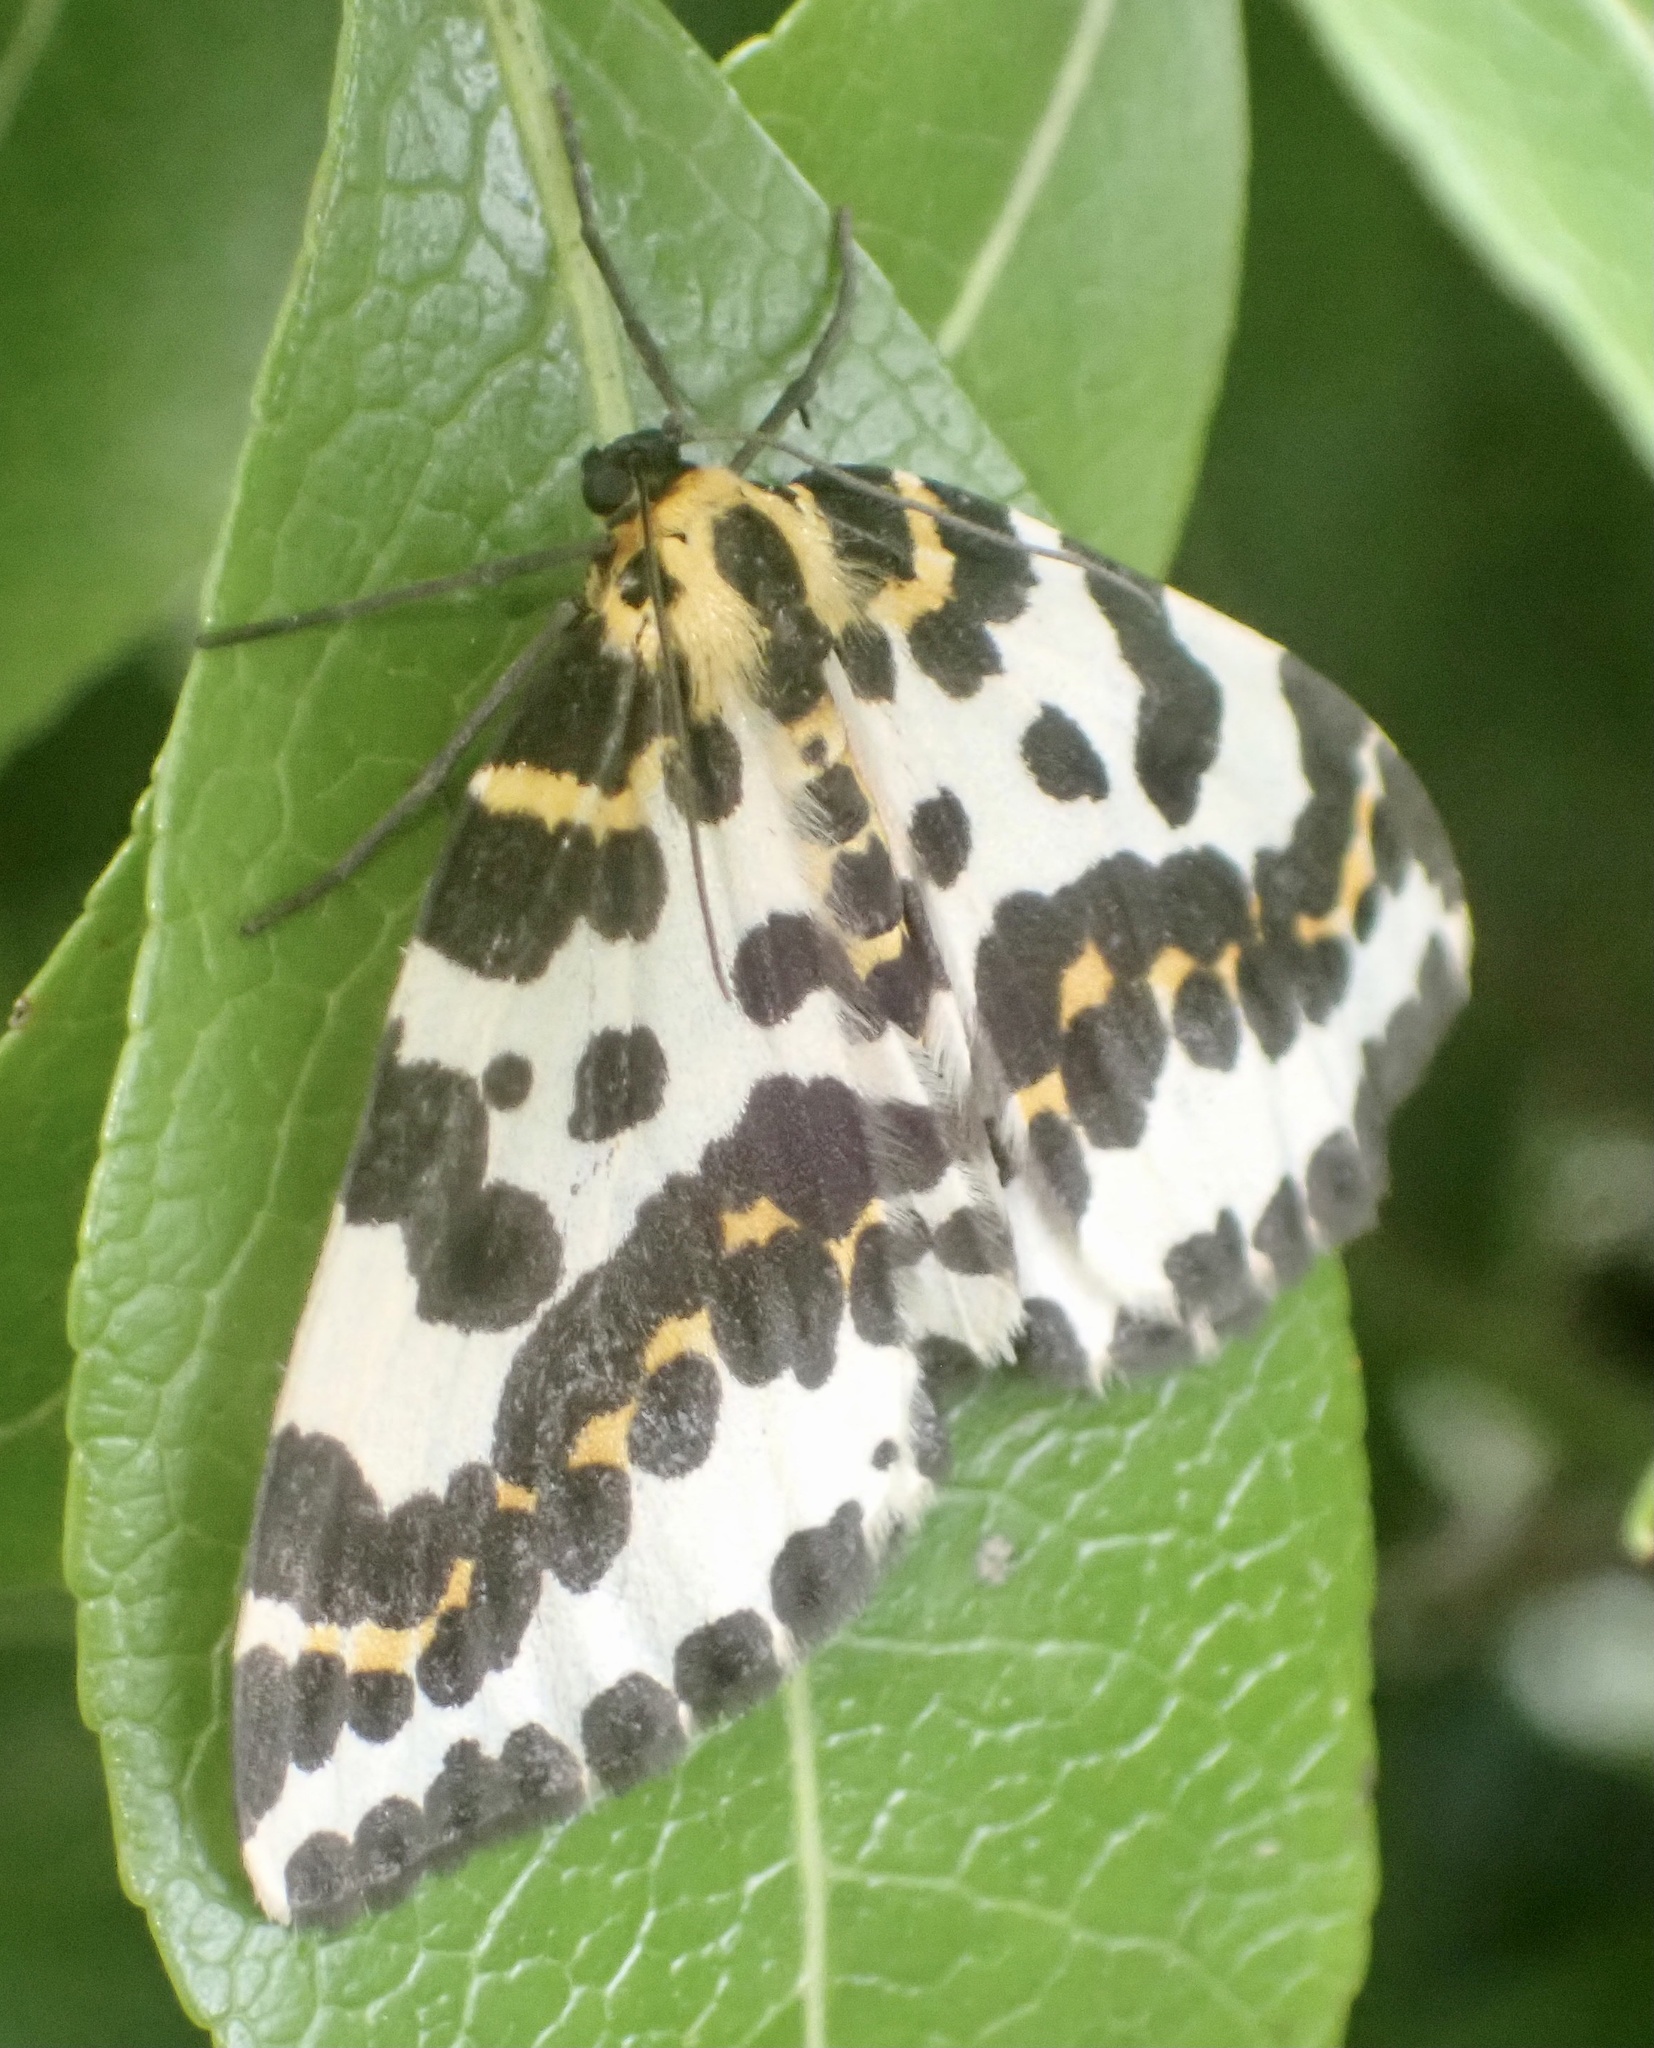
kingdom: Animalia
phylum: Arthropoda
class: Insecta
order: Lepidoptera
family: Geometridae
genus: Abraxas
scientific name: Abraxas grossulariata
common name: Magpie
